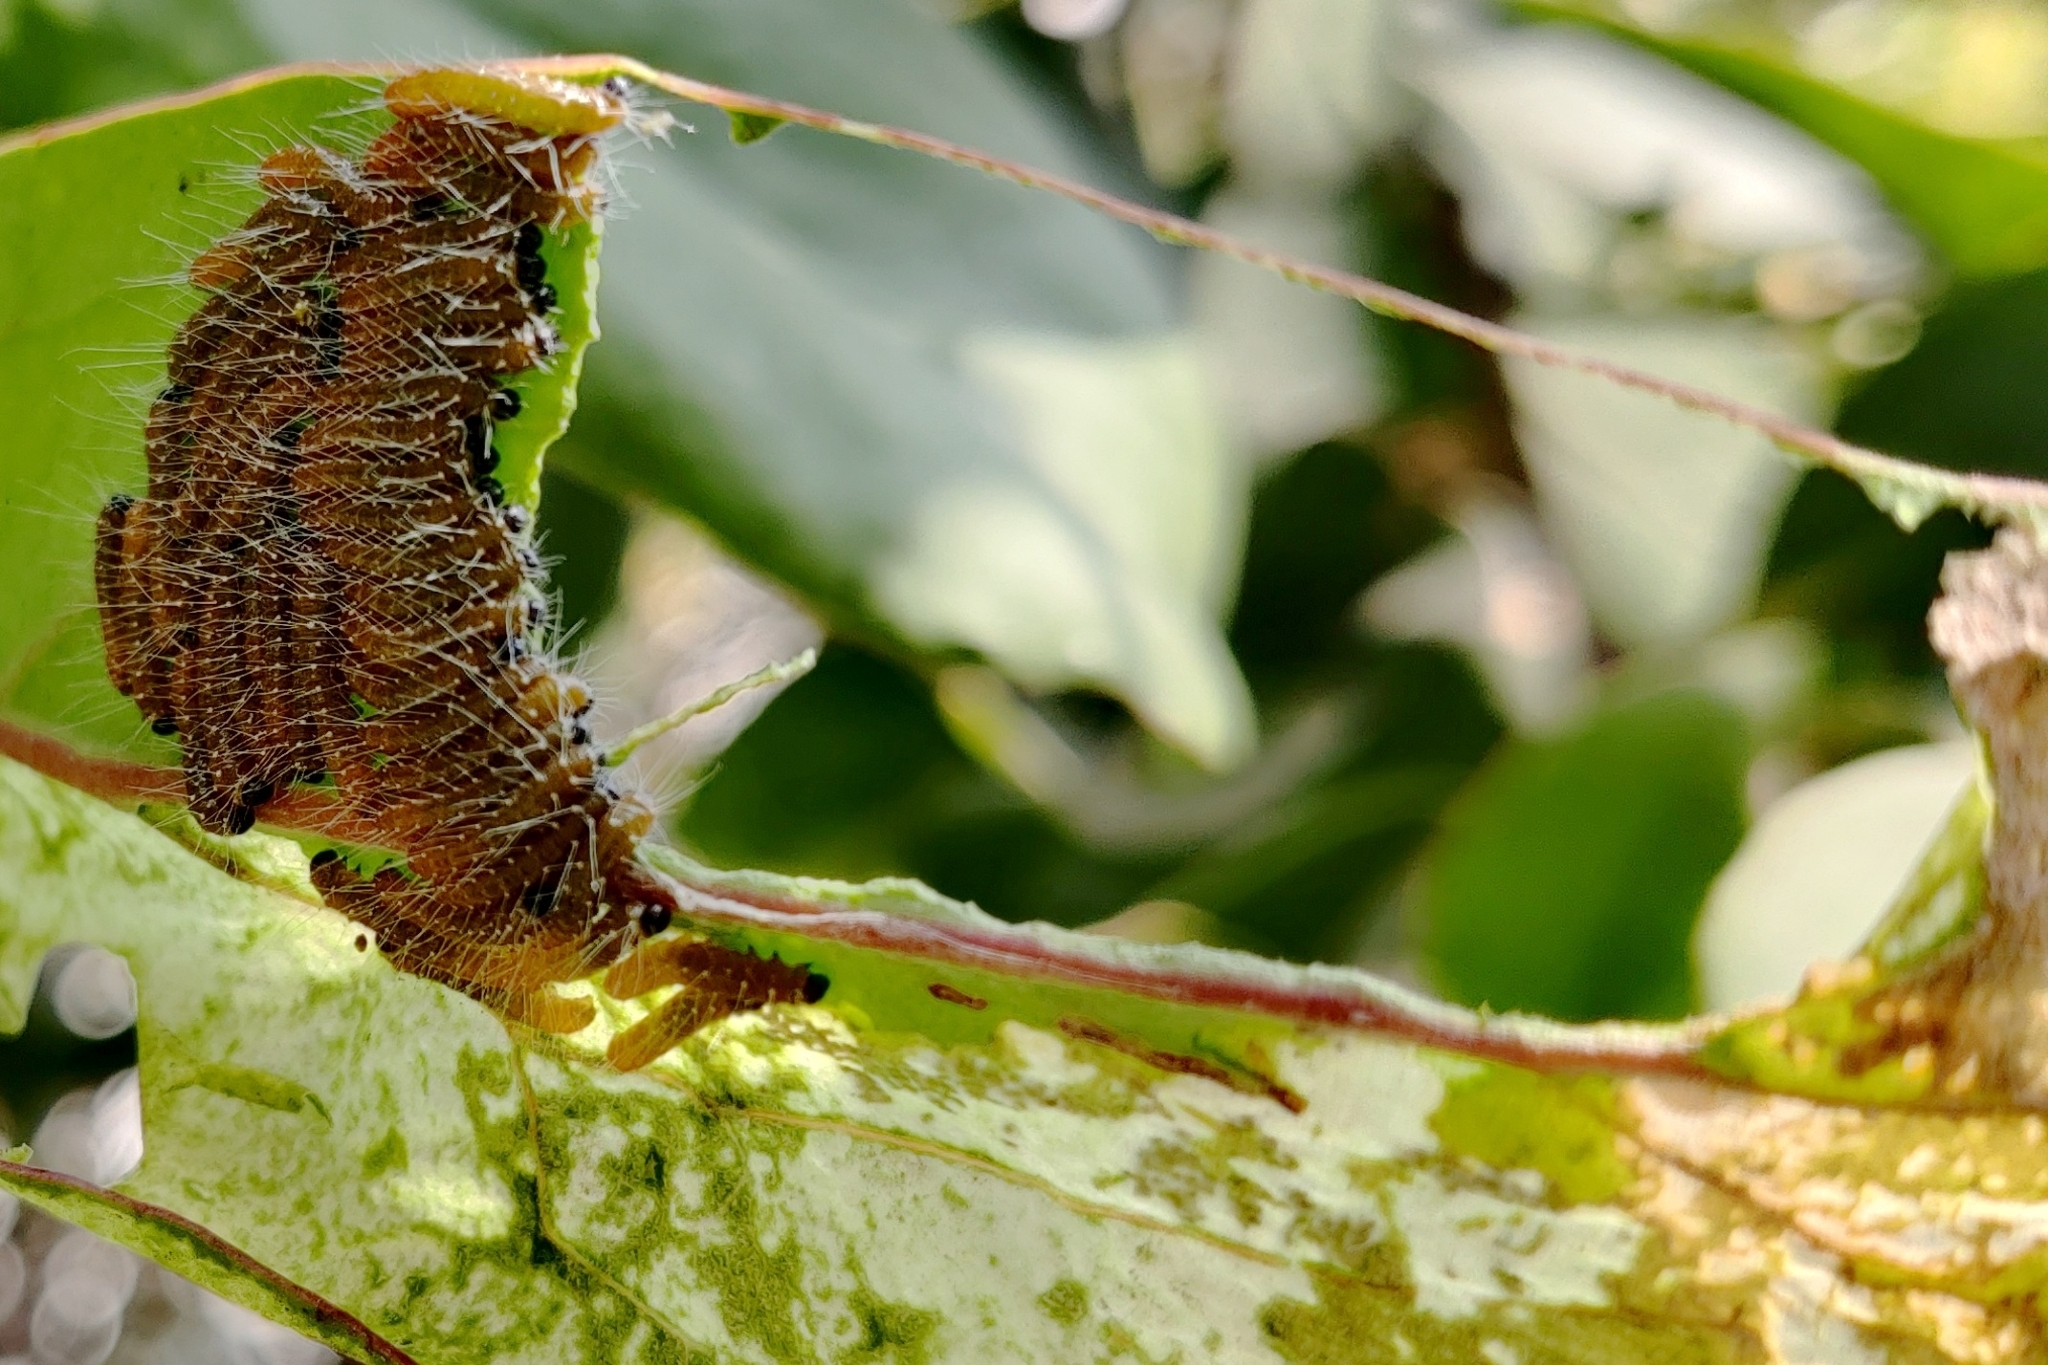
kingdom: Animalia
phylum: Arthropoda
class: Insecta
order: Lepidoptera
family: Pieridae
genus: Delias
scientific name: Delias eucharis
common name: Common jezebel
